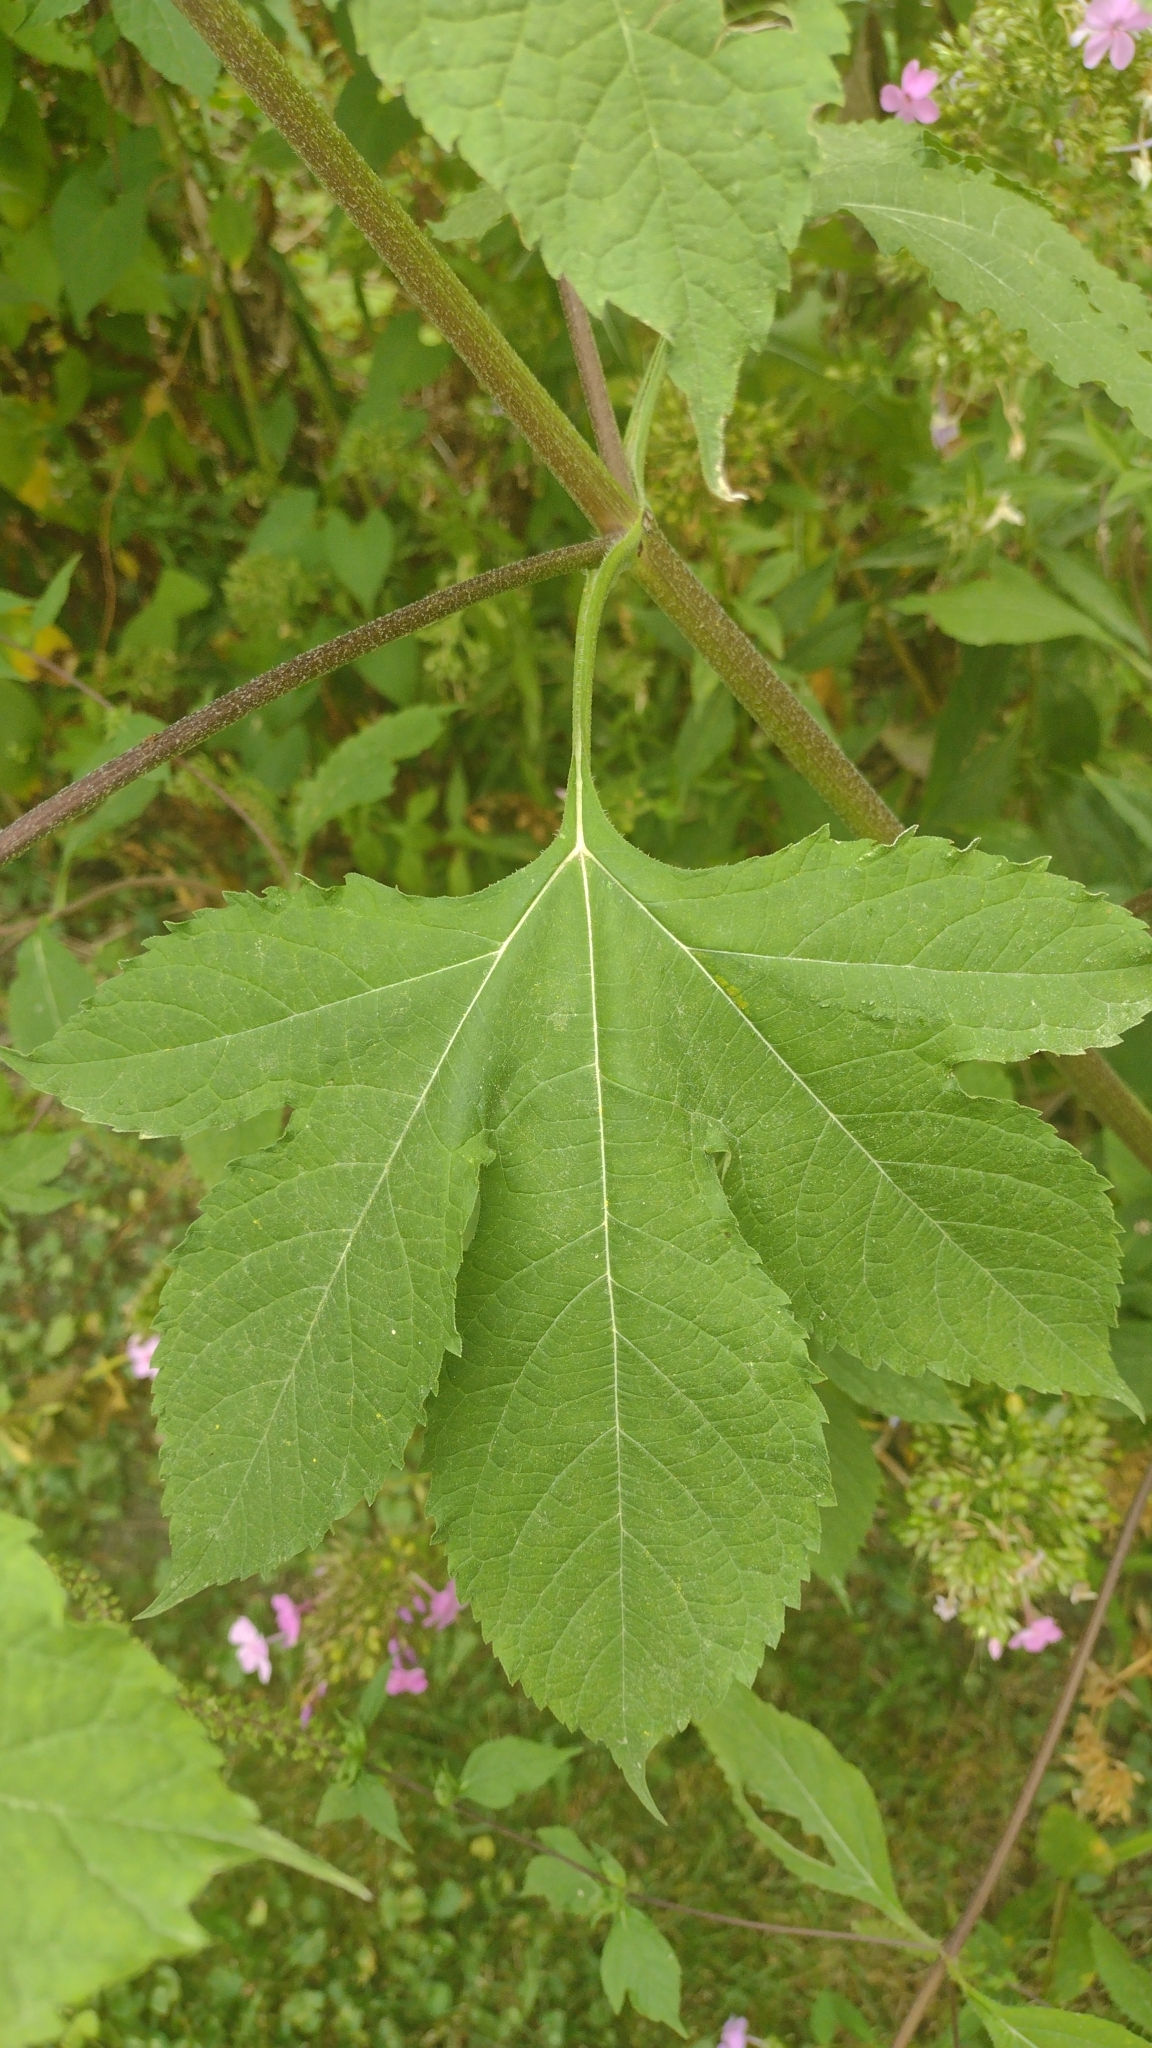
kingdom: Plantae
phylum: Tracheophyta
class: Magnoliopsida
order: Asterales
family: Asteraceae
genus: Ambrosia
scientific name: Ambrosia trifida
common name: Giant ragweed
